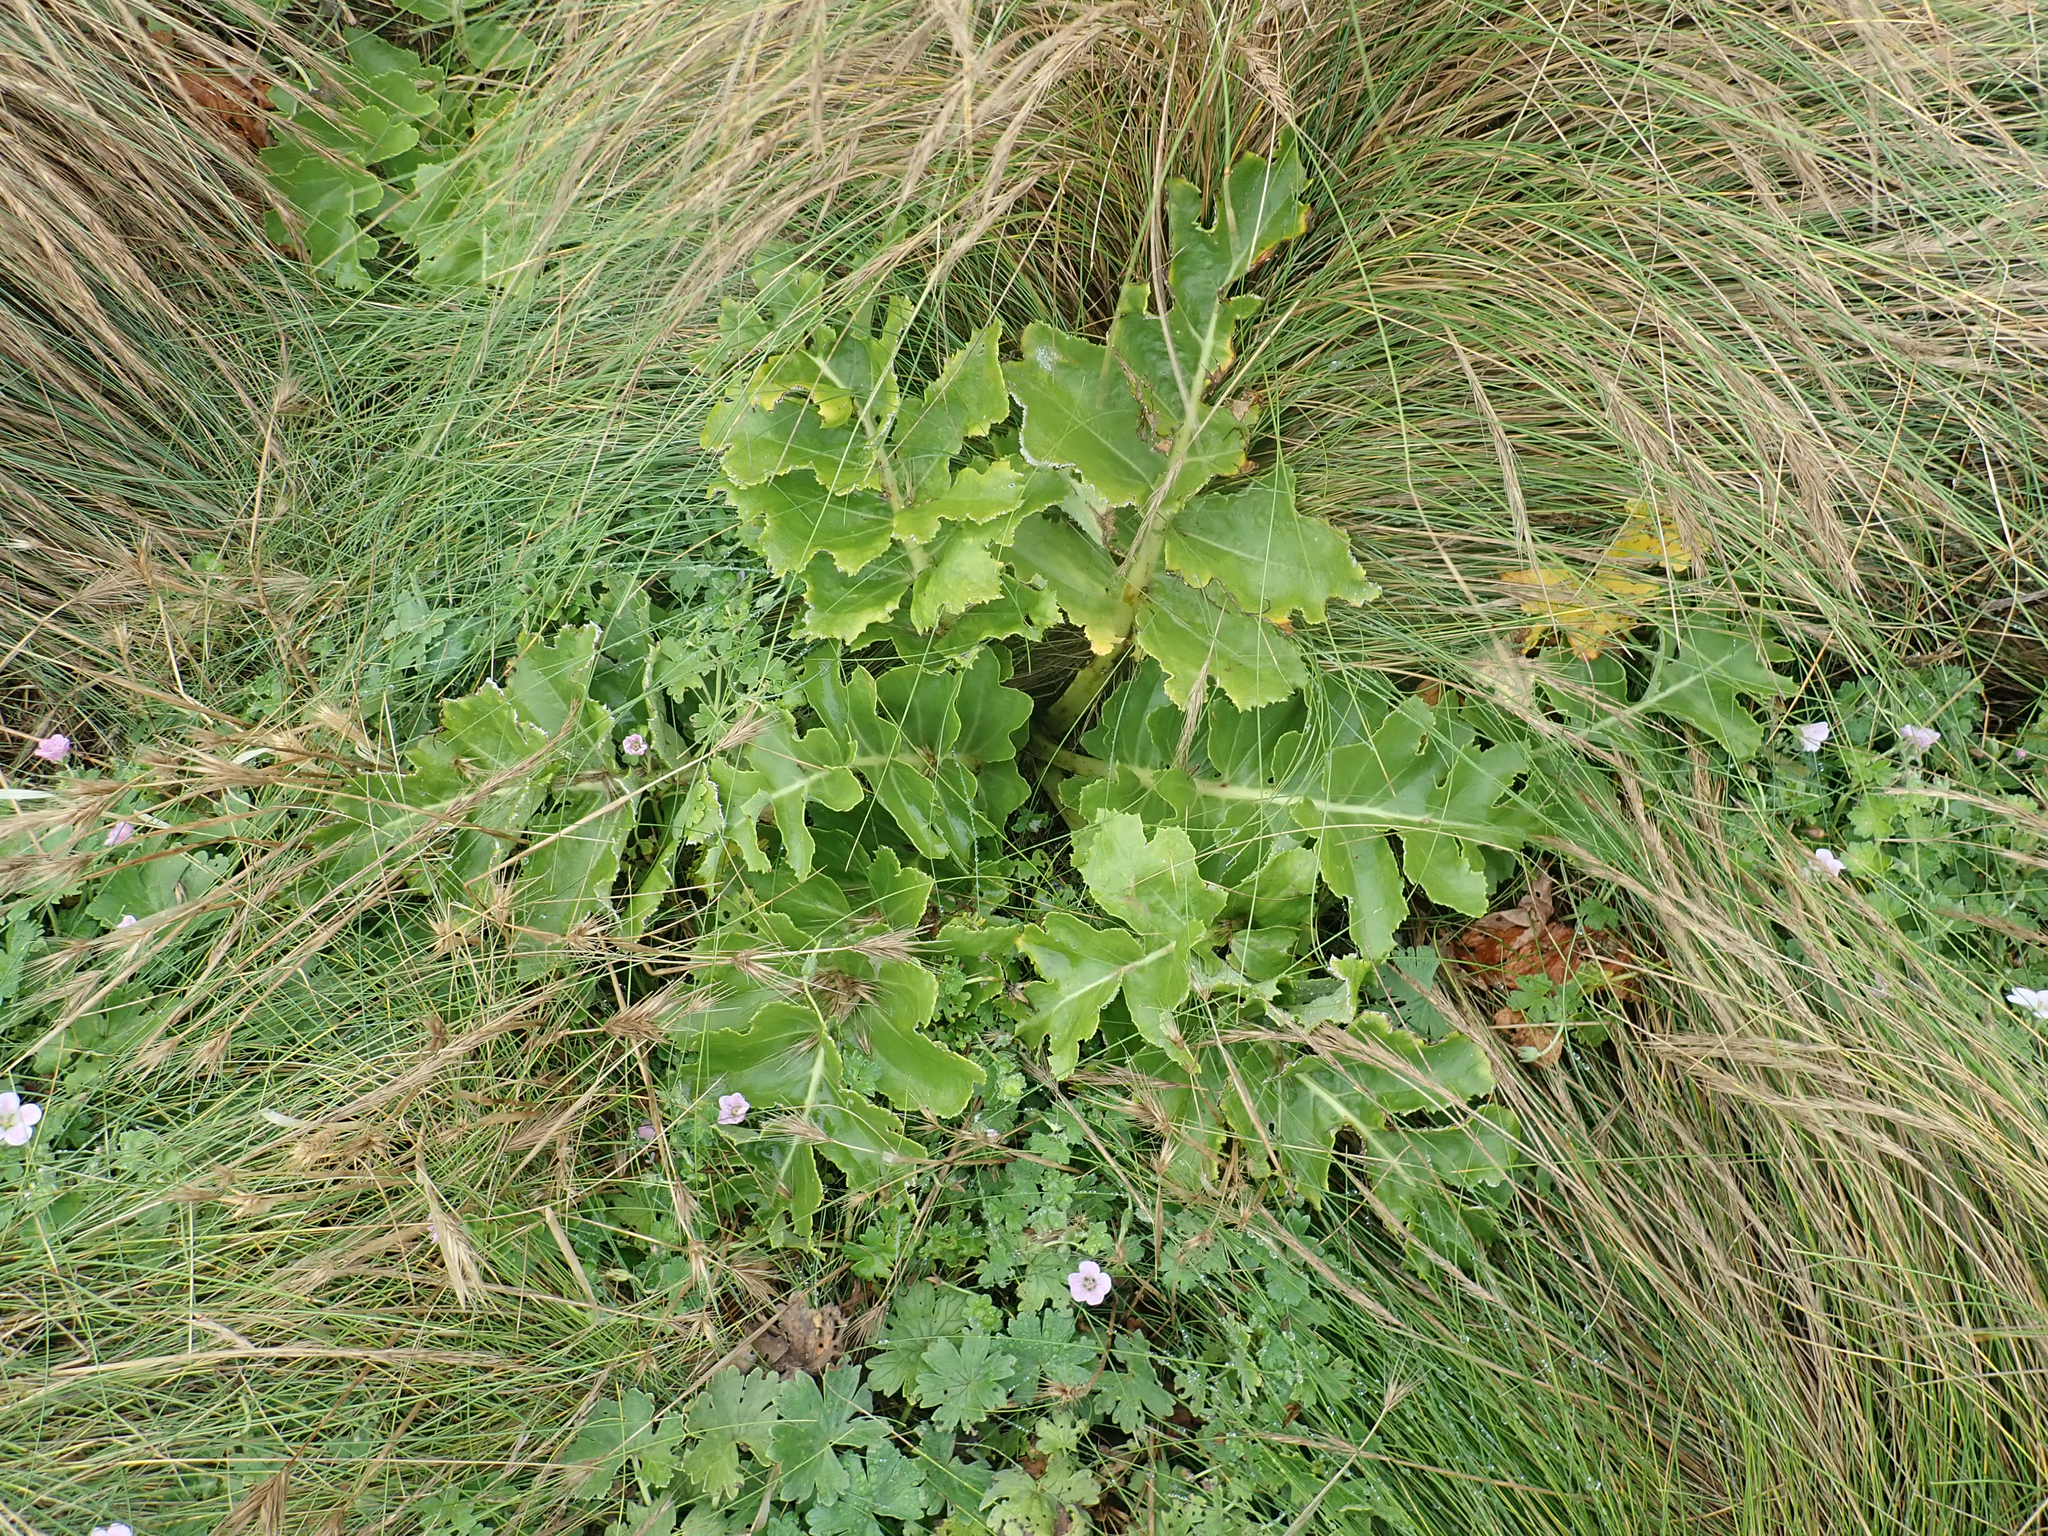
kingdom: Plantae
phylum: Tracheophyta
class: Magnoliopsida
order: Asterales
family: Asteraceae
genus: Sonchus
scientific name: Sonchus grandifolius
